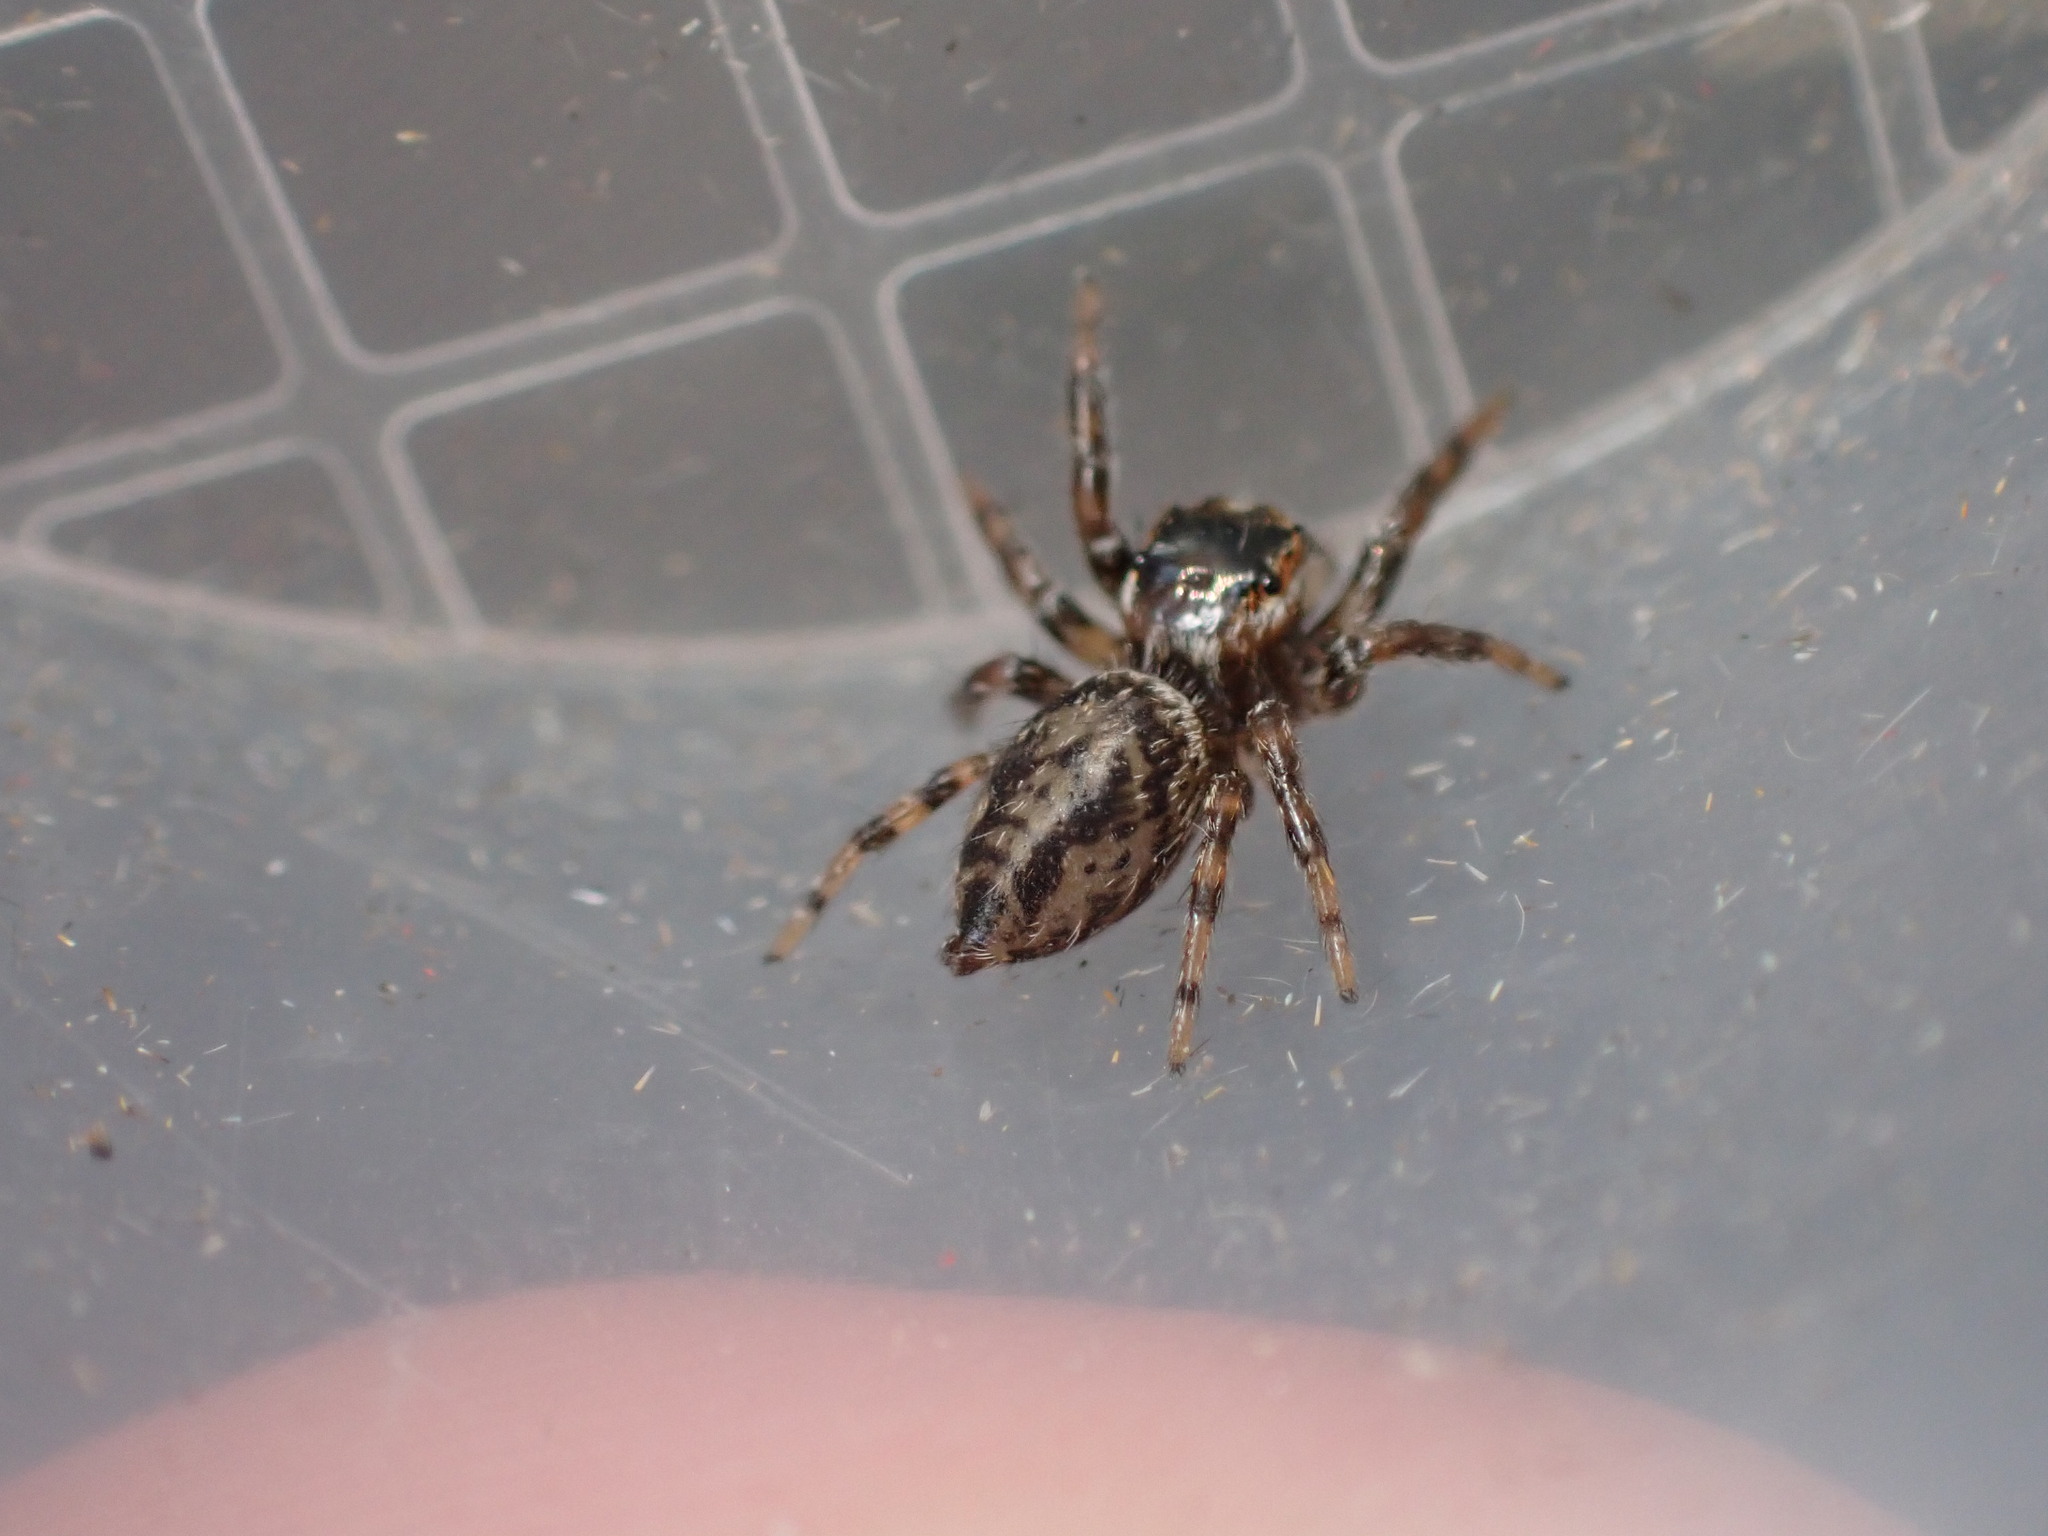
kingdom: Animalia
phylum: Arthropoda
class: Arachnida
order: Araneae
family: Salticidae
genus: Evarcha
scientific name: Evarcha jucunda
